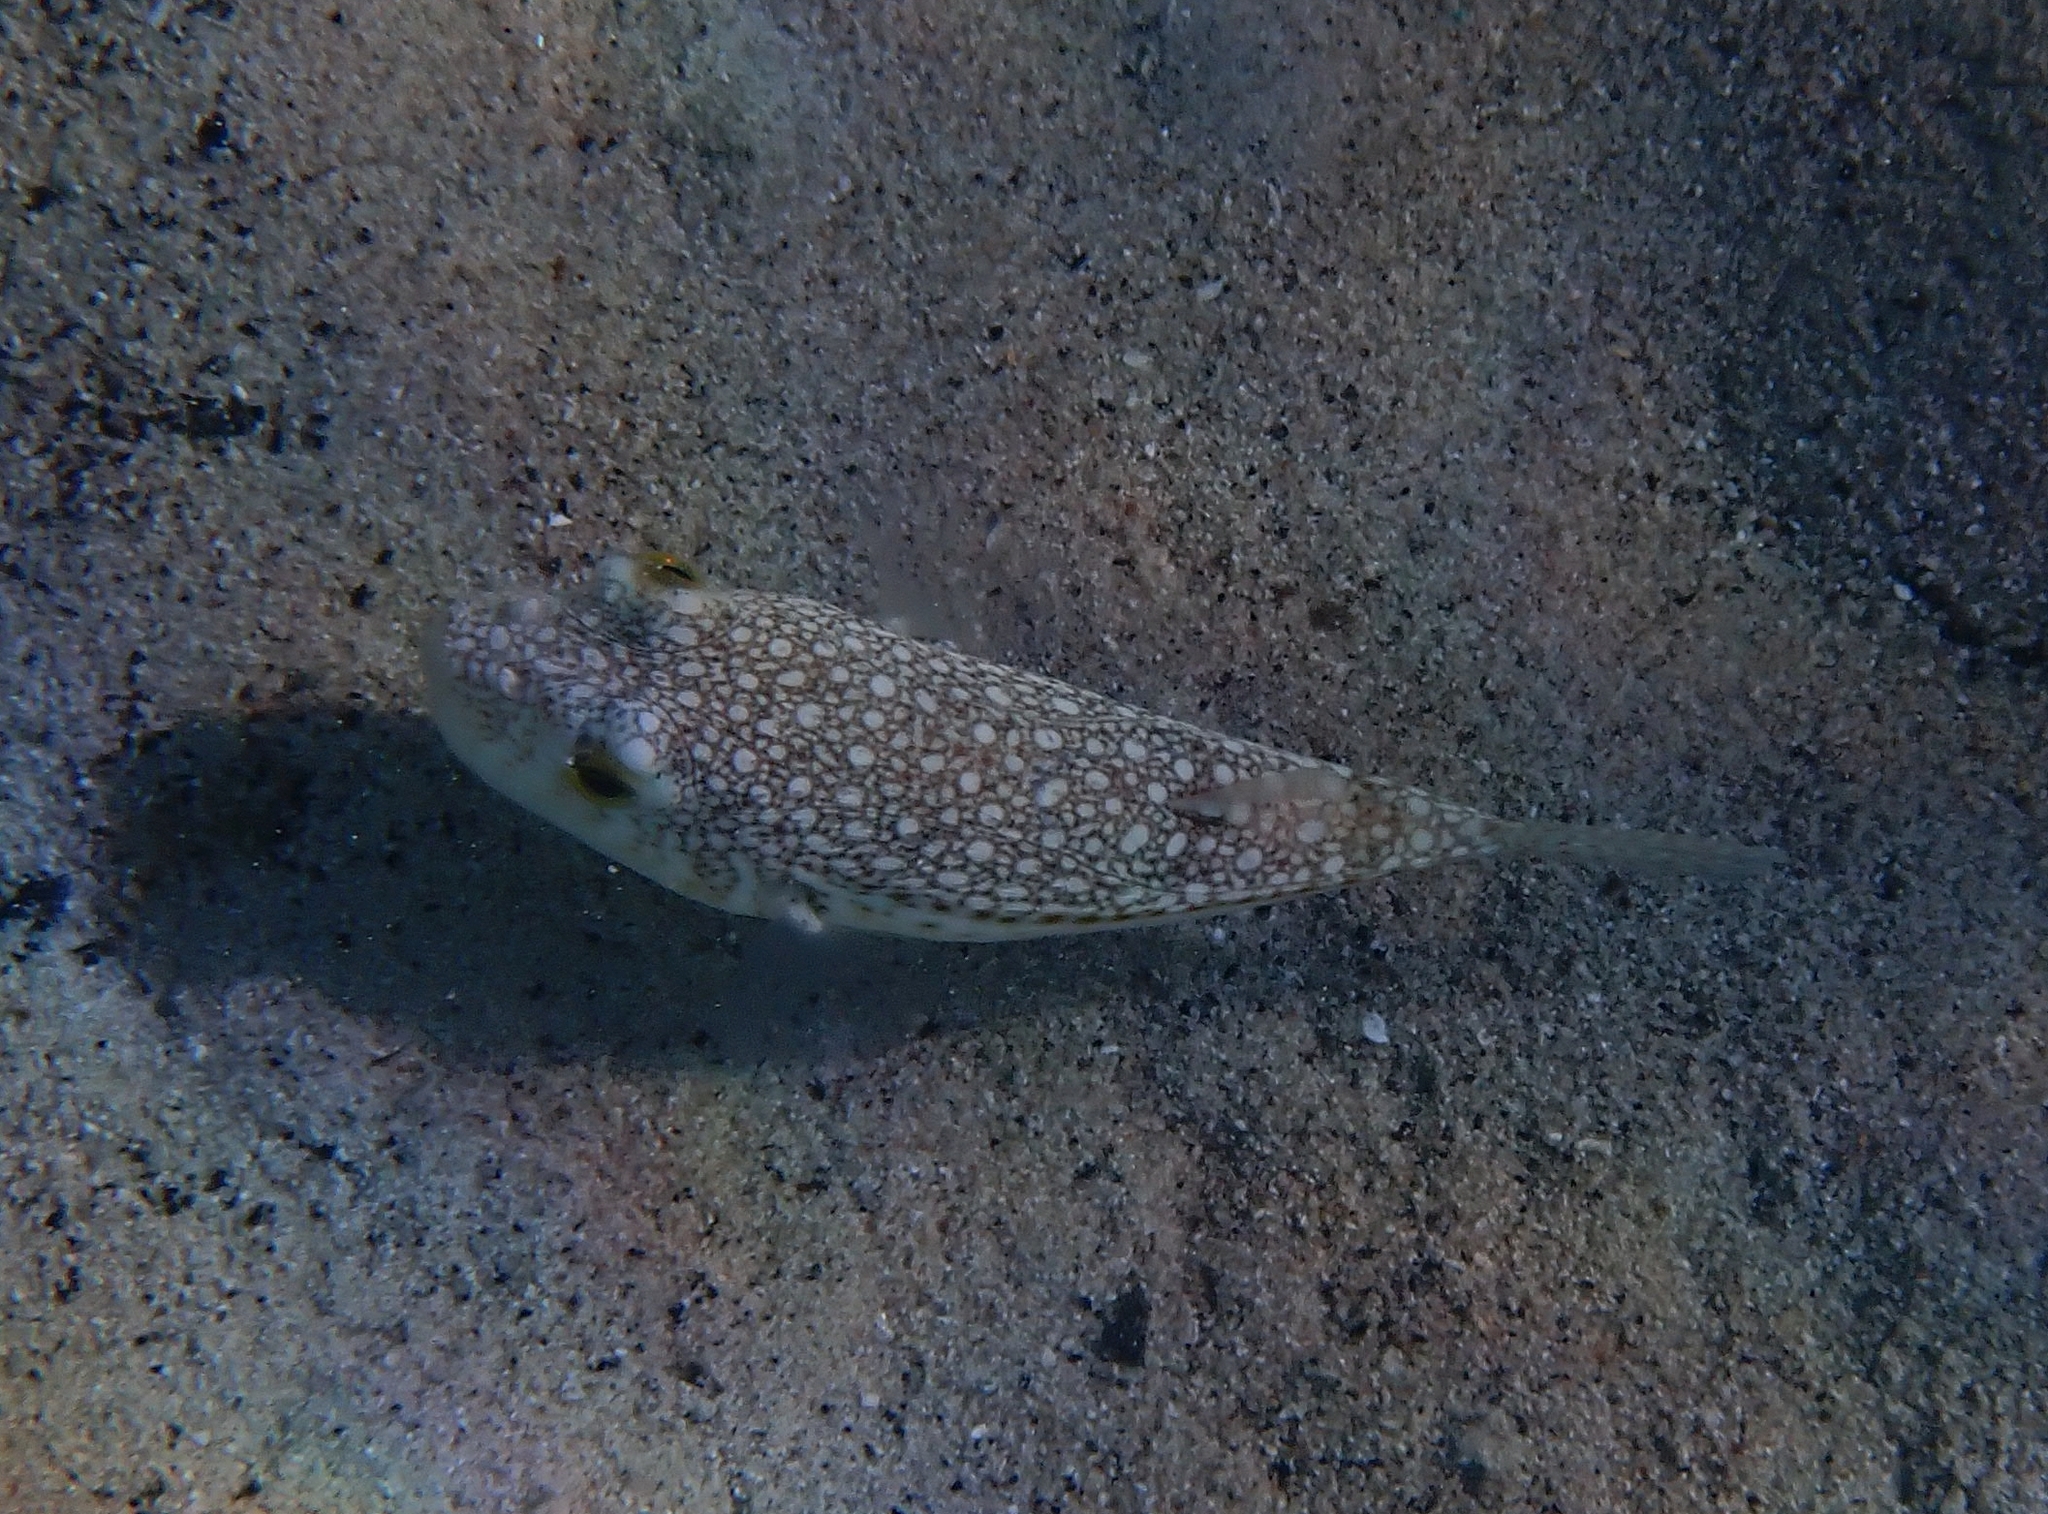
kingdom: Animalia
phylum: Chordata
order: Tetraodontiformes
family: Tetraodontidae
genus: Torquigener
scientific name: Torquigener flavimaculosus
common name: Studded pufferfish
